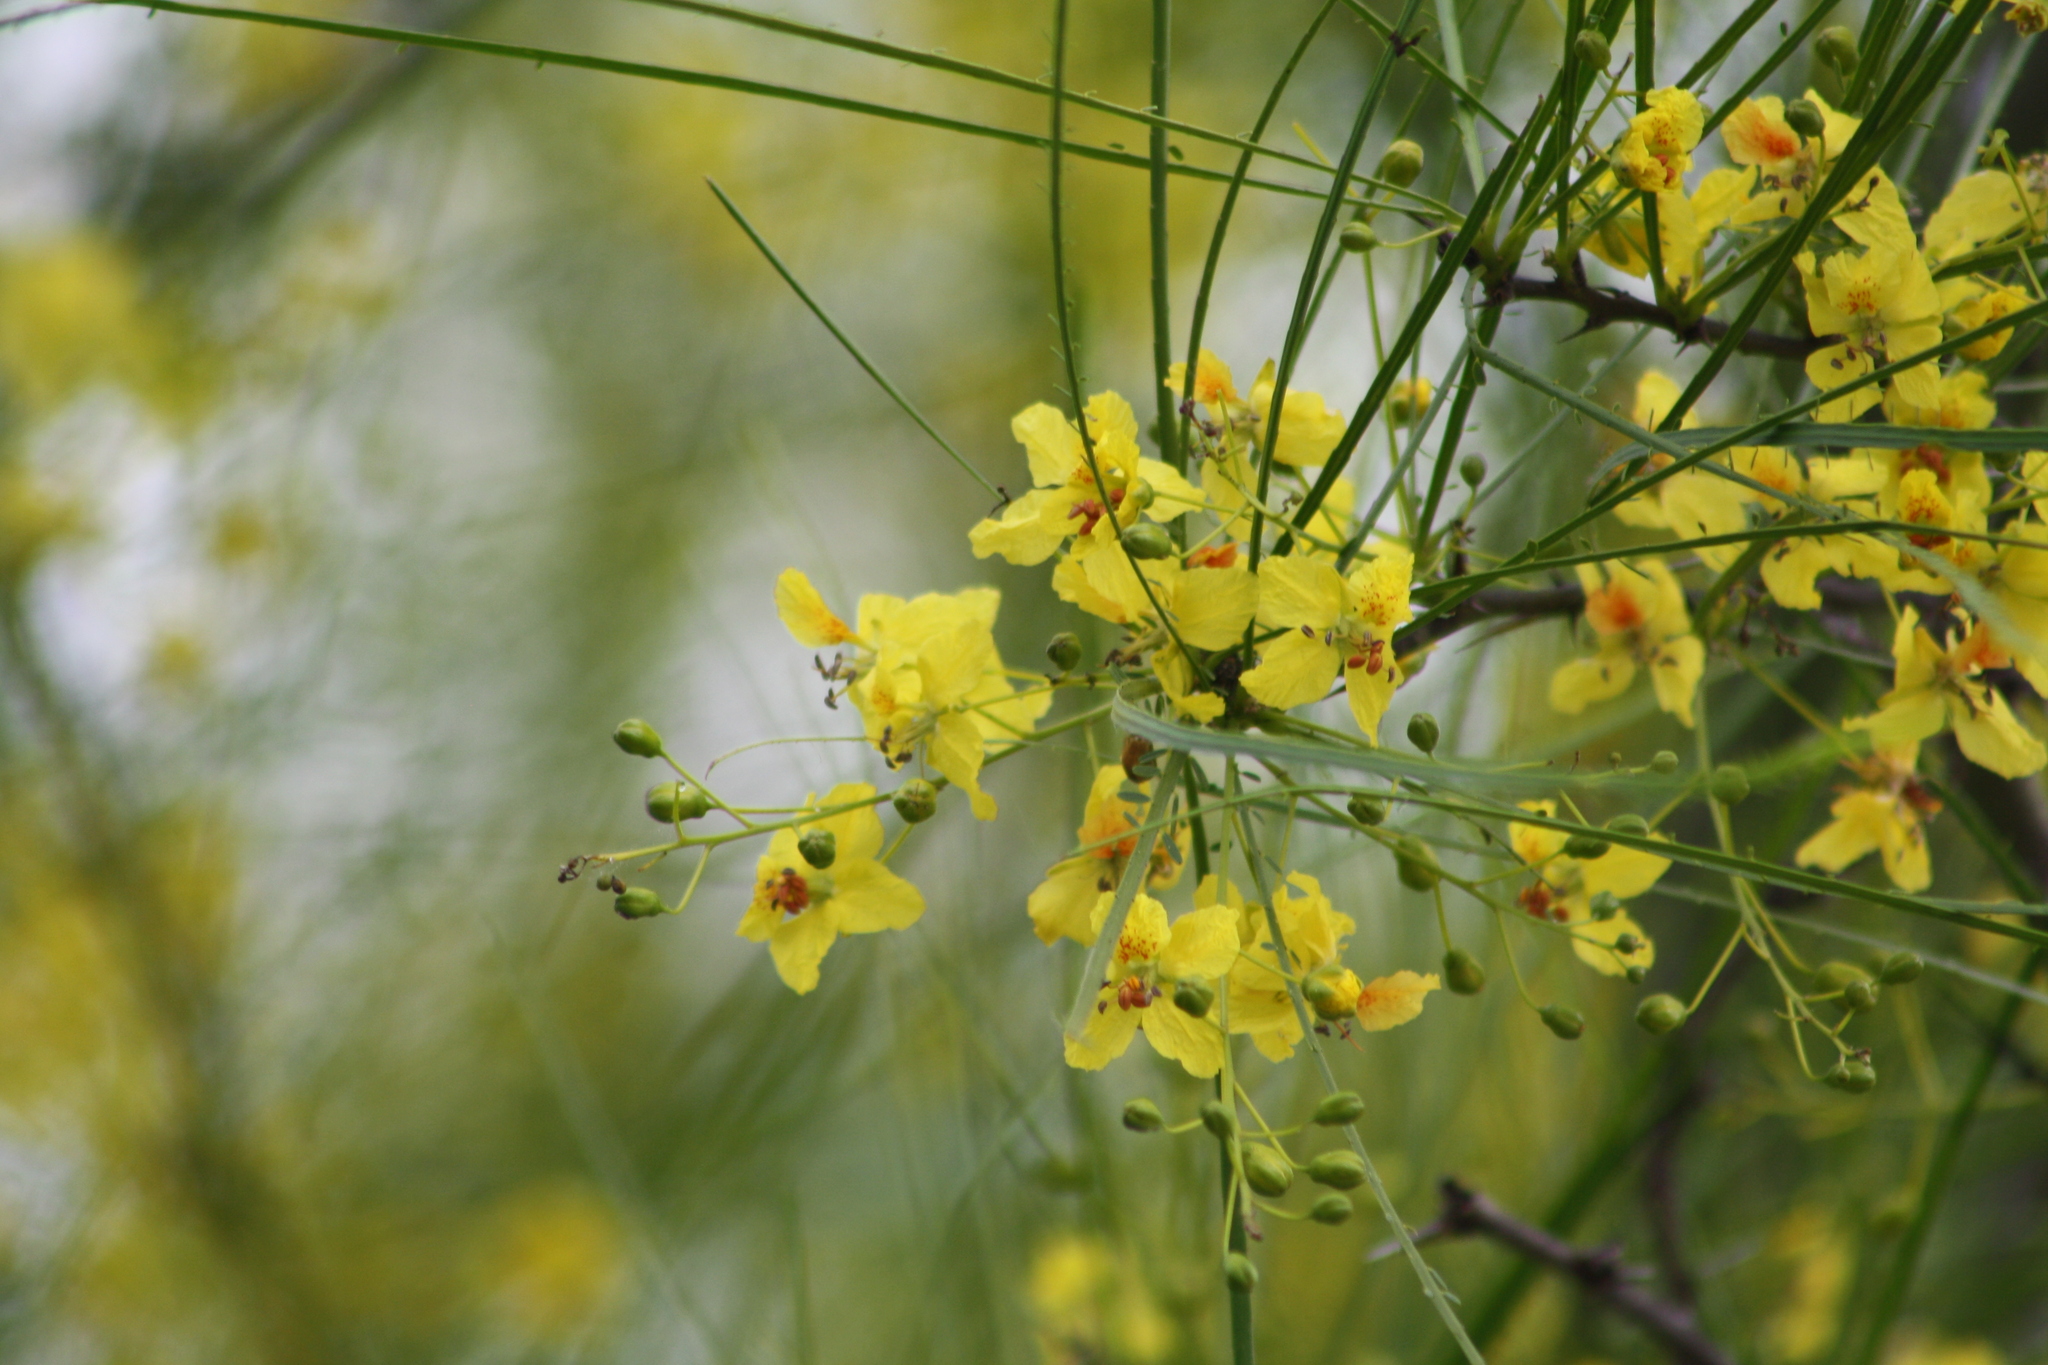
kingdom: Plantae
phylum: Tracheophyta
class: Magnoliopsida
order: Fabales
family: Fabaceae
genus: Parkinsonia
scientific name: Parkinsonia aculeata
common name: Jerusalem thorn
